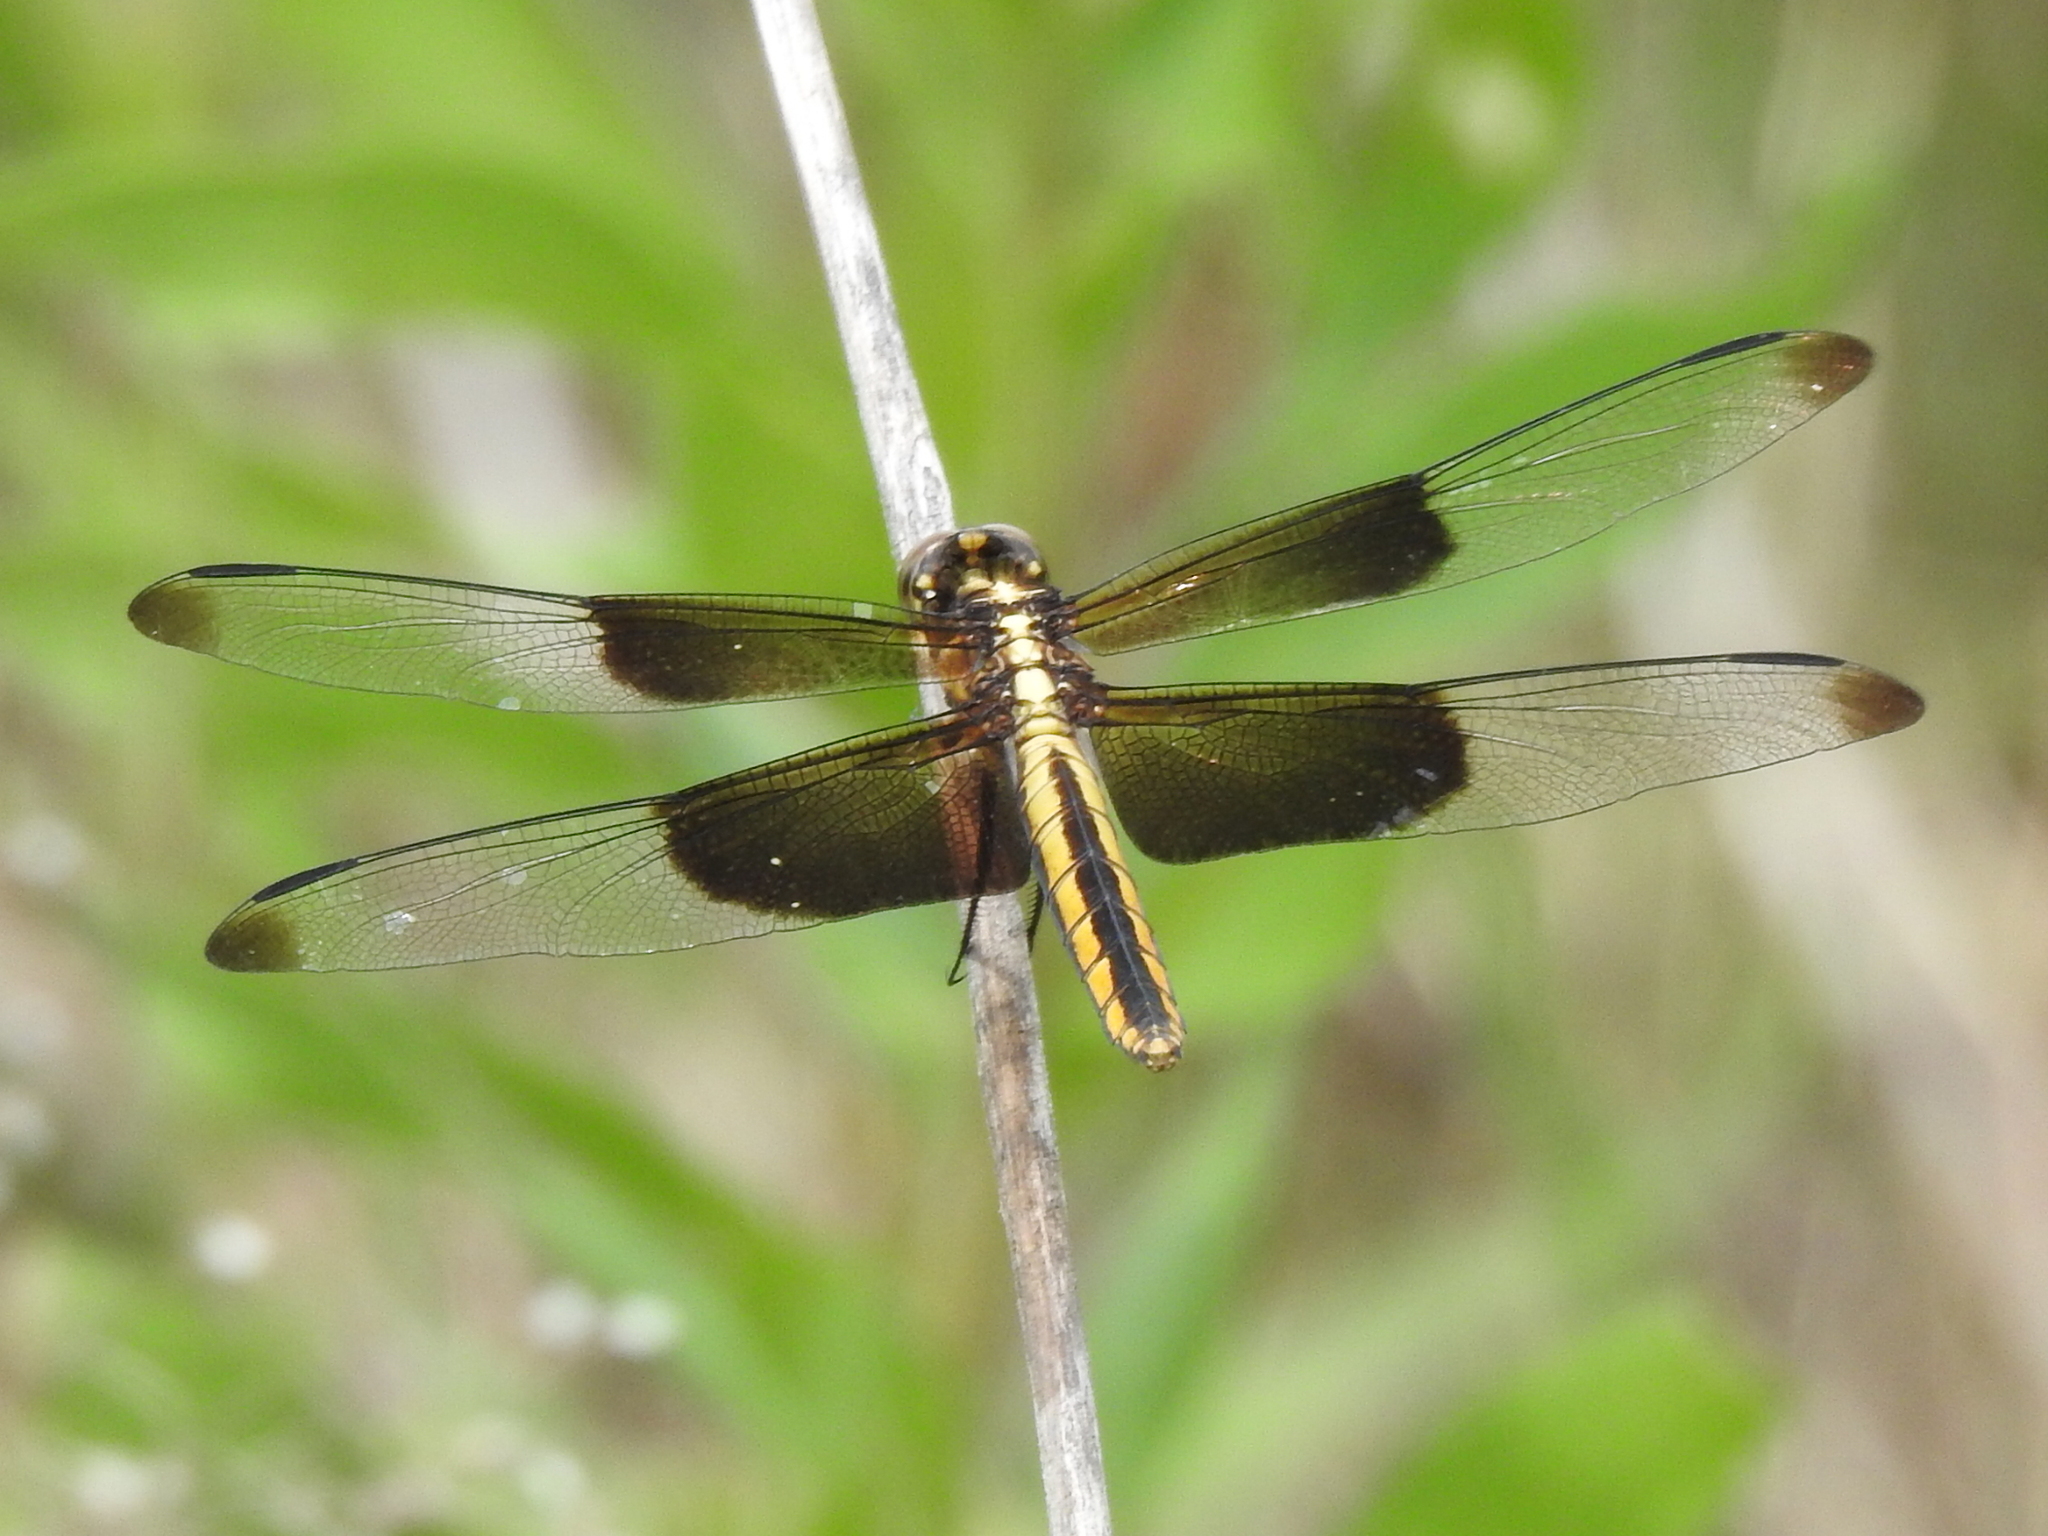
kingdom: Animalia
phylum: Arthropoda
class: Insecta
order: Odonata
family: Libellulidae
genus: Libellula
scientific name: Libellula luctuosa
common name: Widow skimmer
